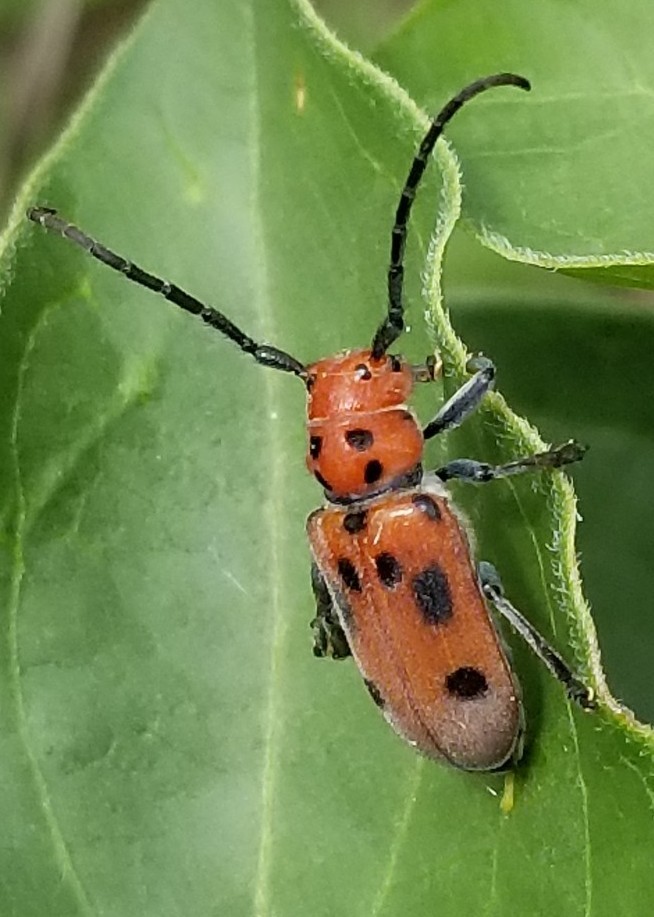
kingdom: Animalia
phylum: Arthropoda
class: Insecta
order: Coleoptera
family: Cerambycidae
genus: Tetraopes
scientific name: Tetraopes tetrophthalmus
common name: Red milkweed beetle
